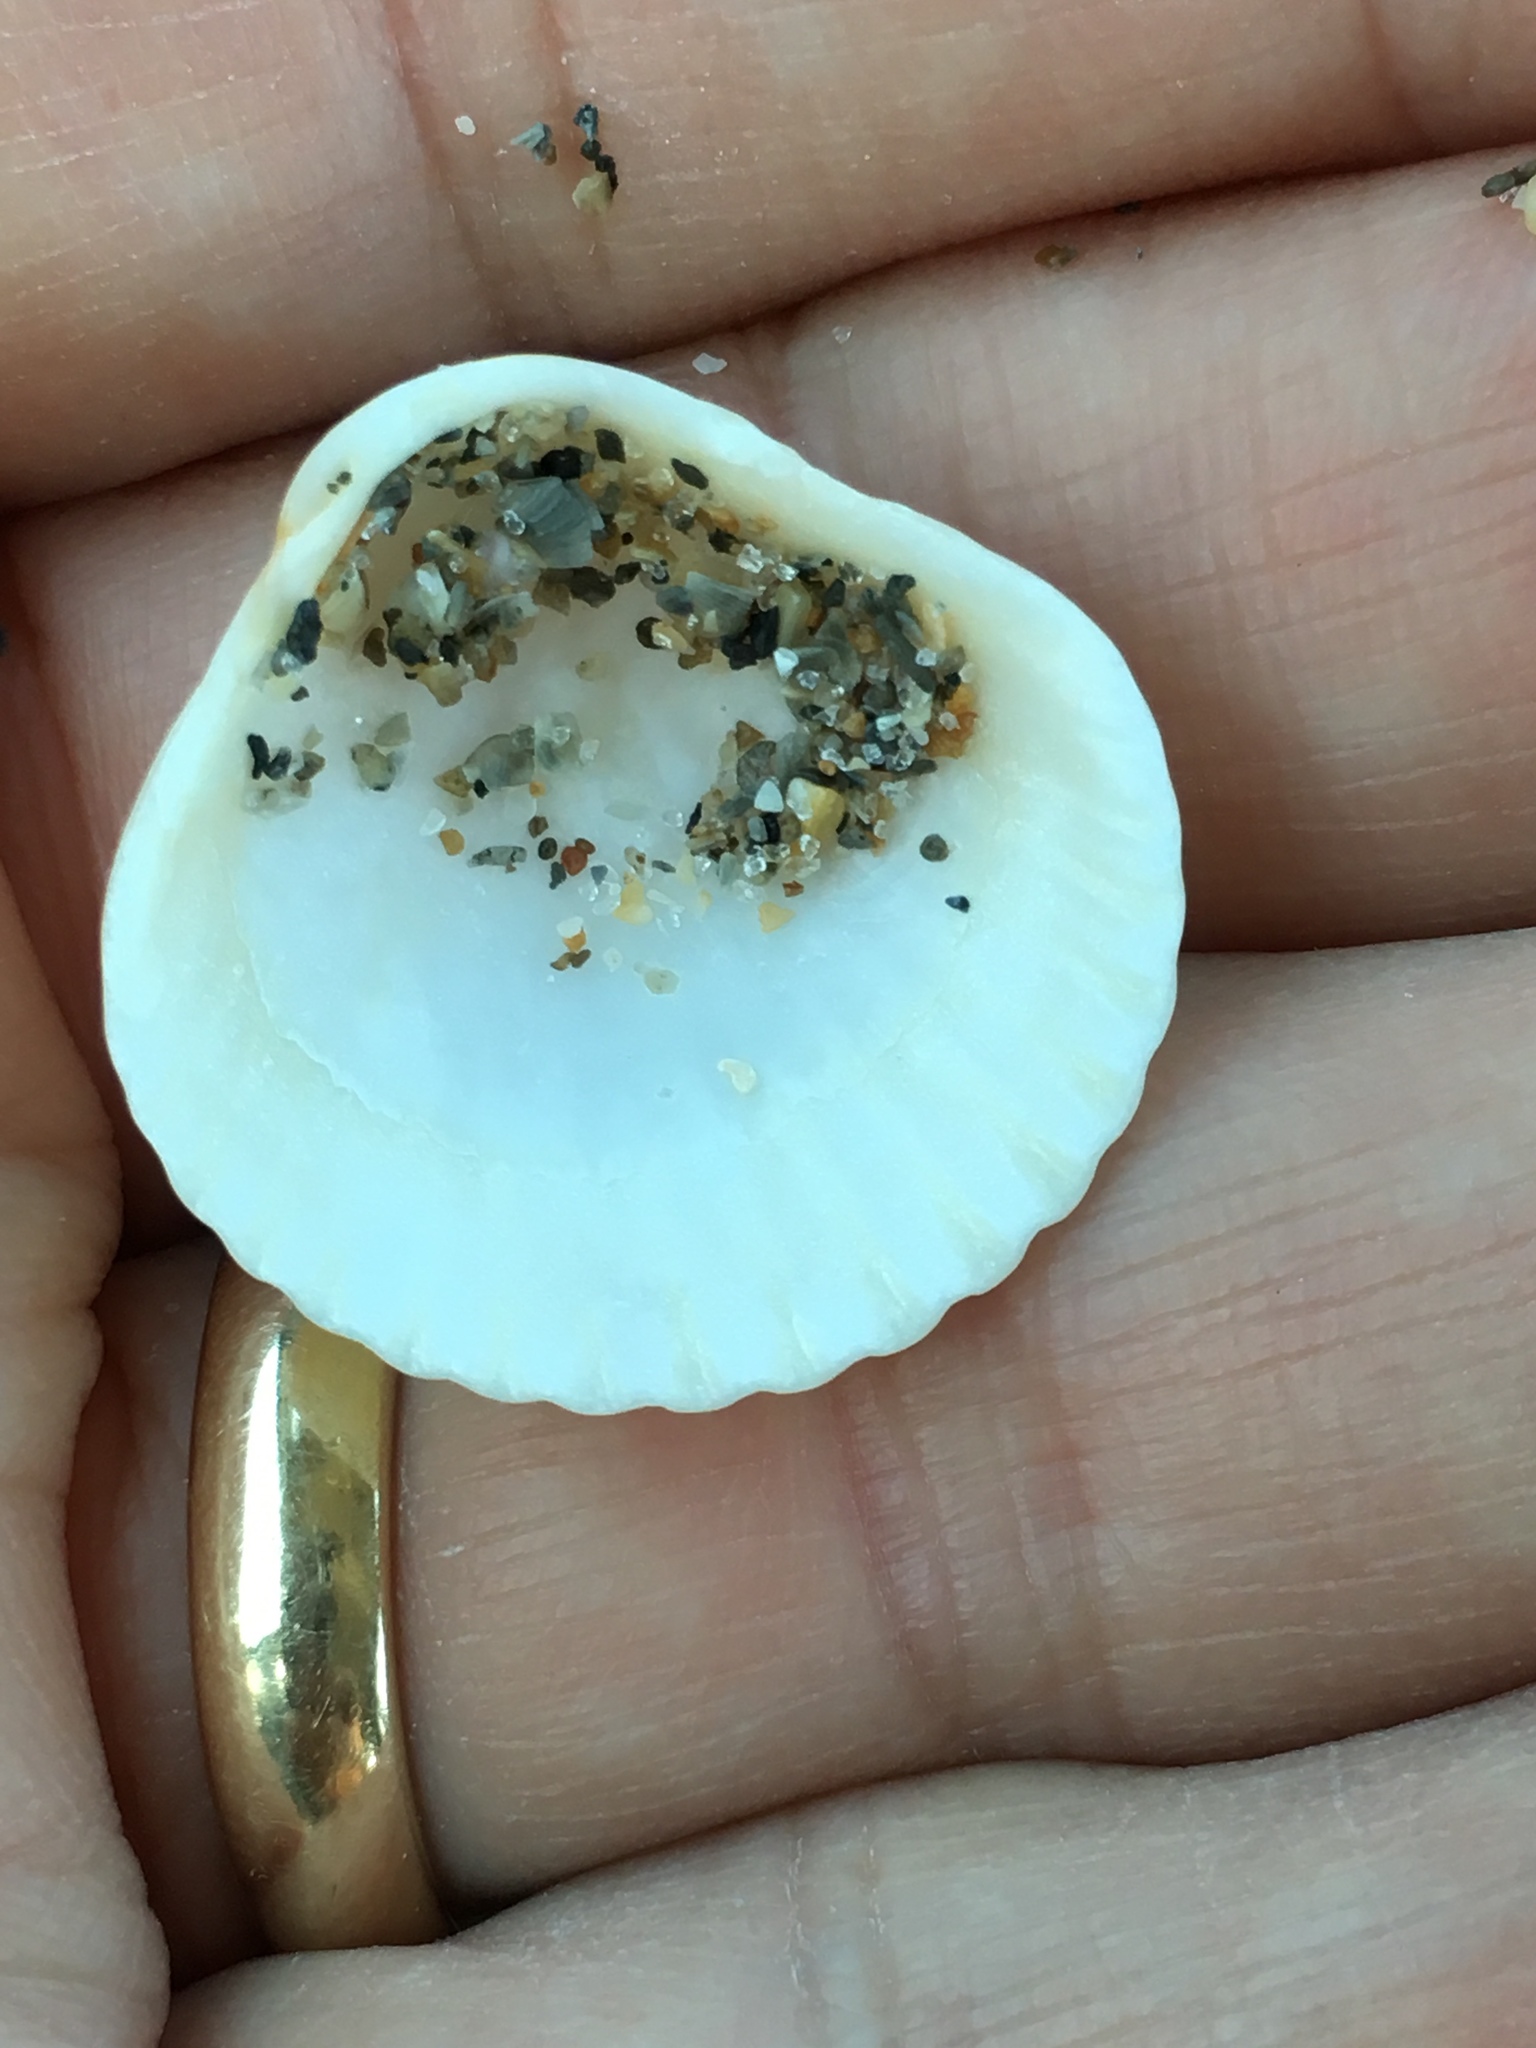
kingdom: Animalia
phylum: Mollusca
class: Bivalvia
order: Pectinida
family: Pectinidae
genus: Argopecten
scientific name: Argopecten gibbus
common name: Atlantic calico scallop
